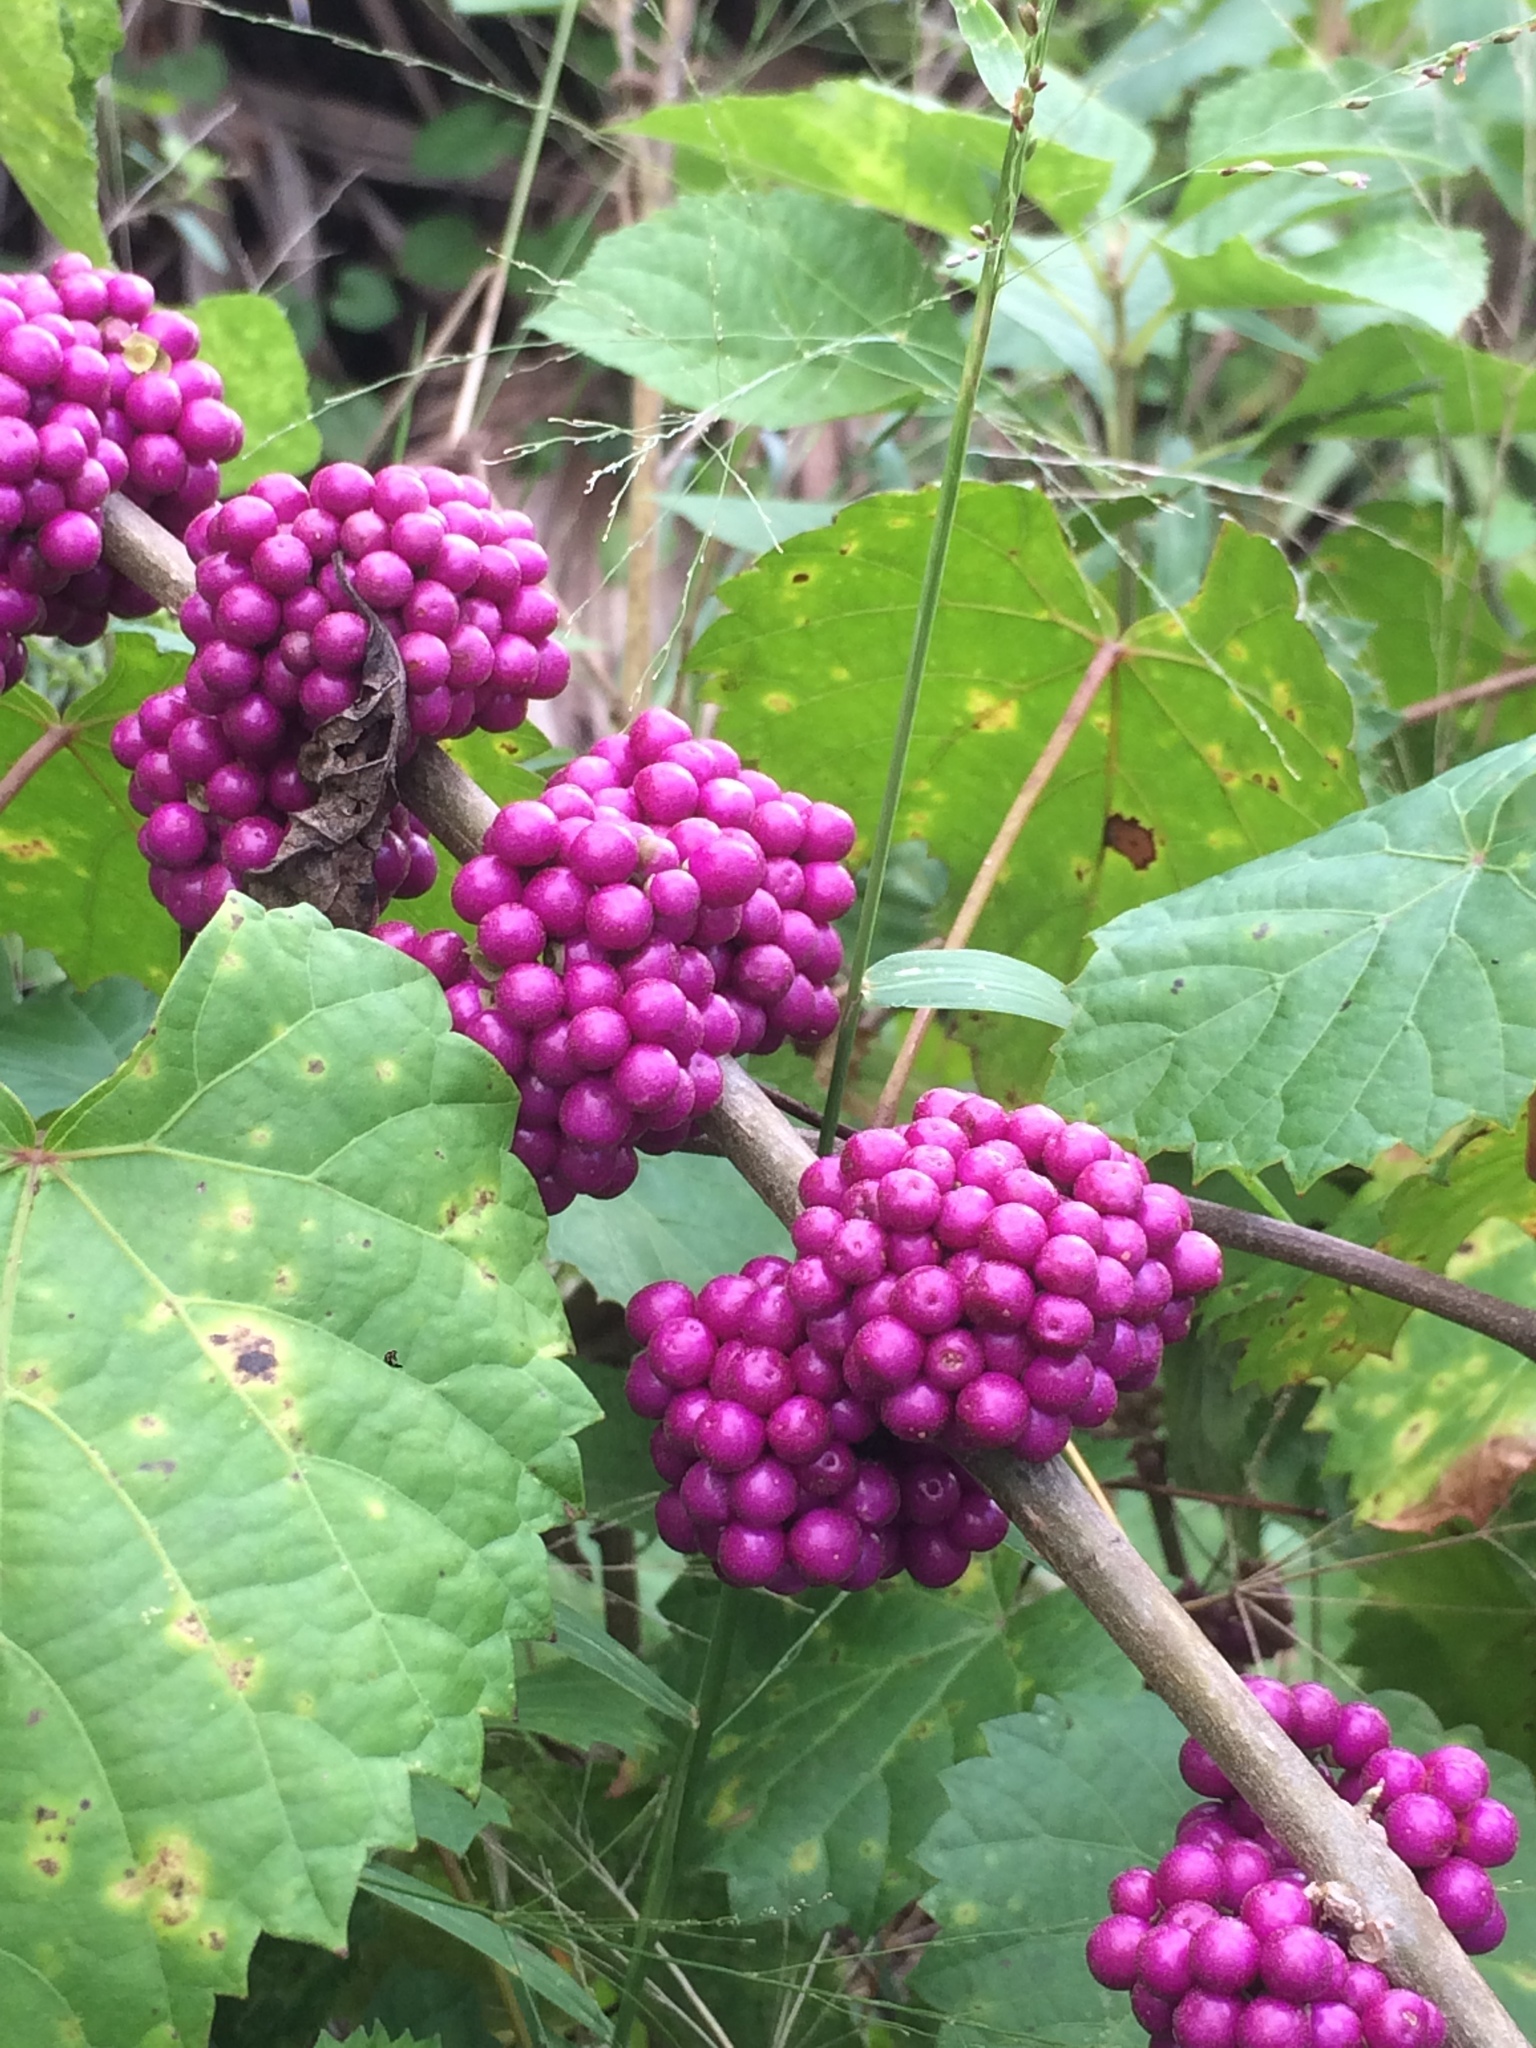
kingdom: Plantae
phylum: Tracheophyta
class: Magnoliopsida
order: Lamiales
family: Lamiaceae
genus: Callicarpa
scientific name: Callicarpa americana
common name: American beautyberry
